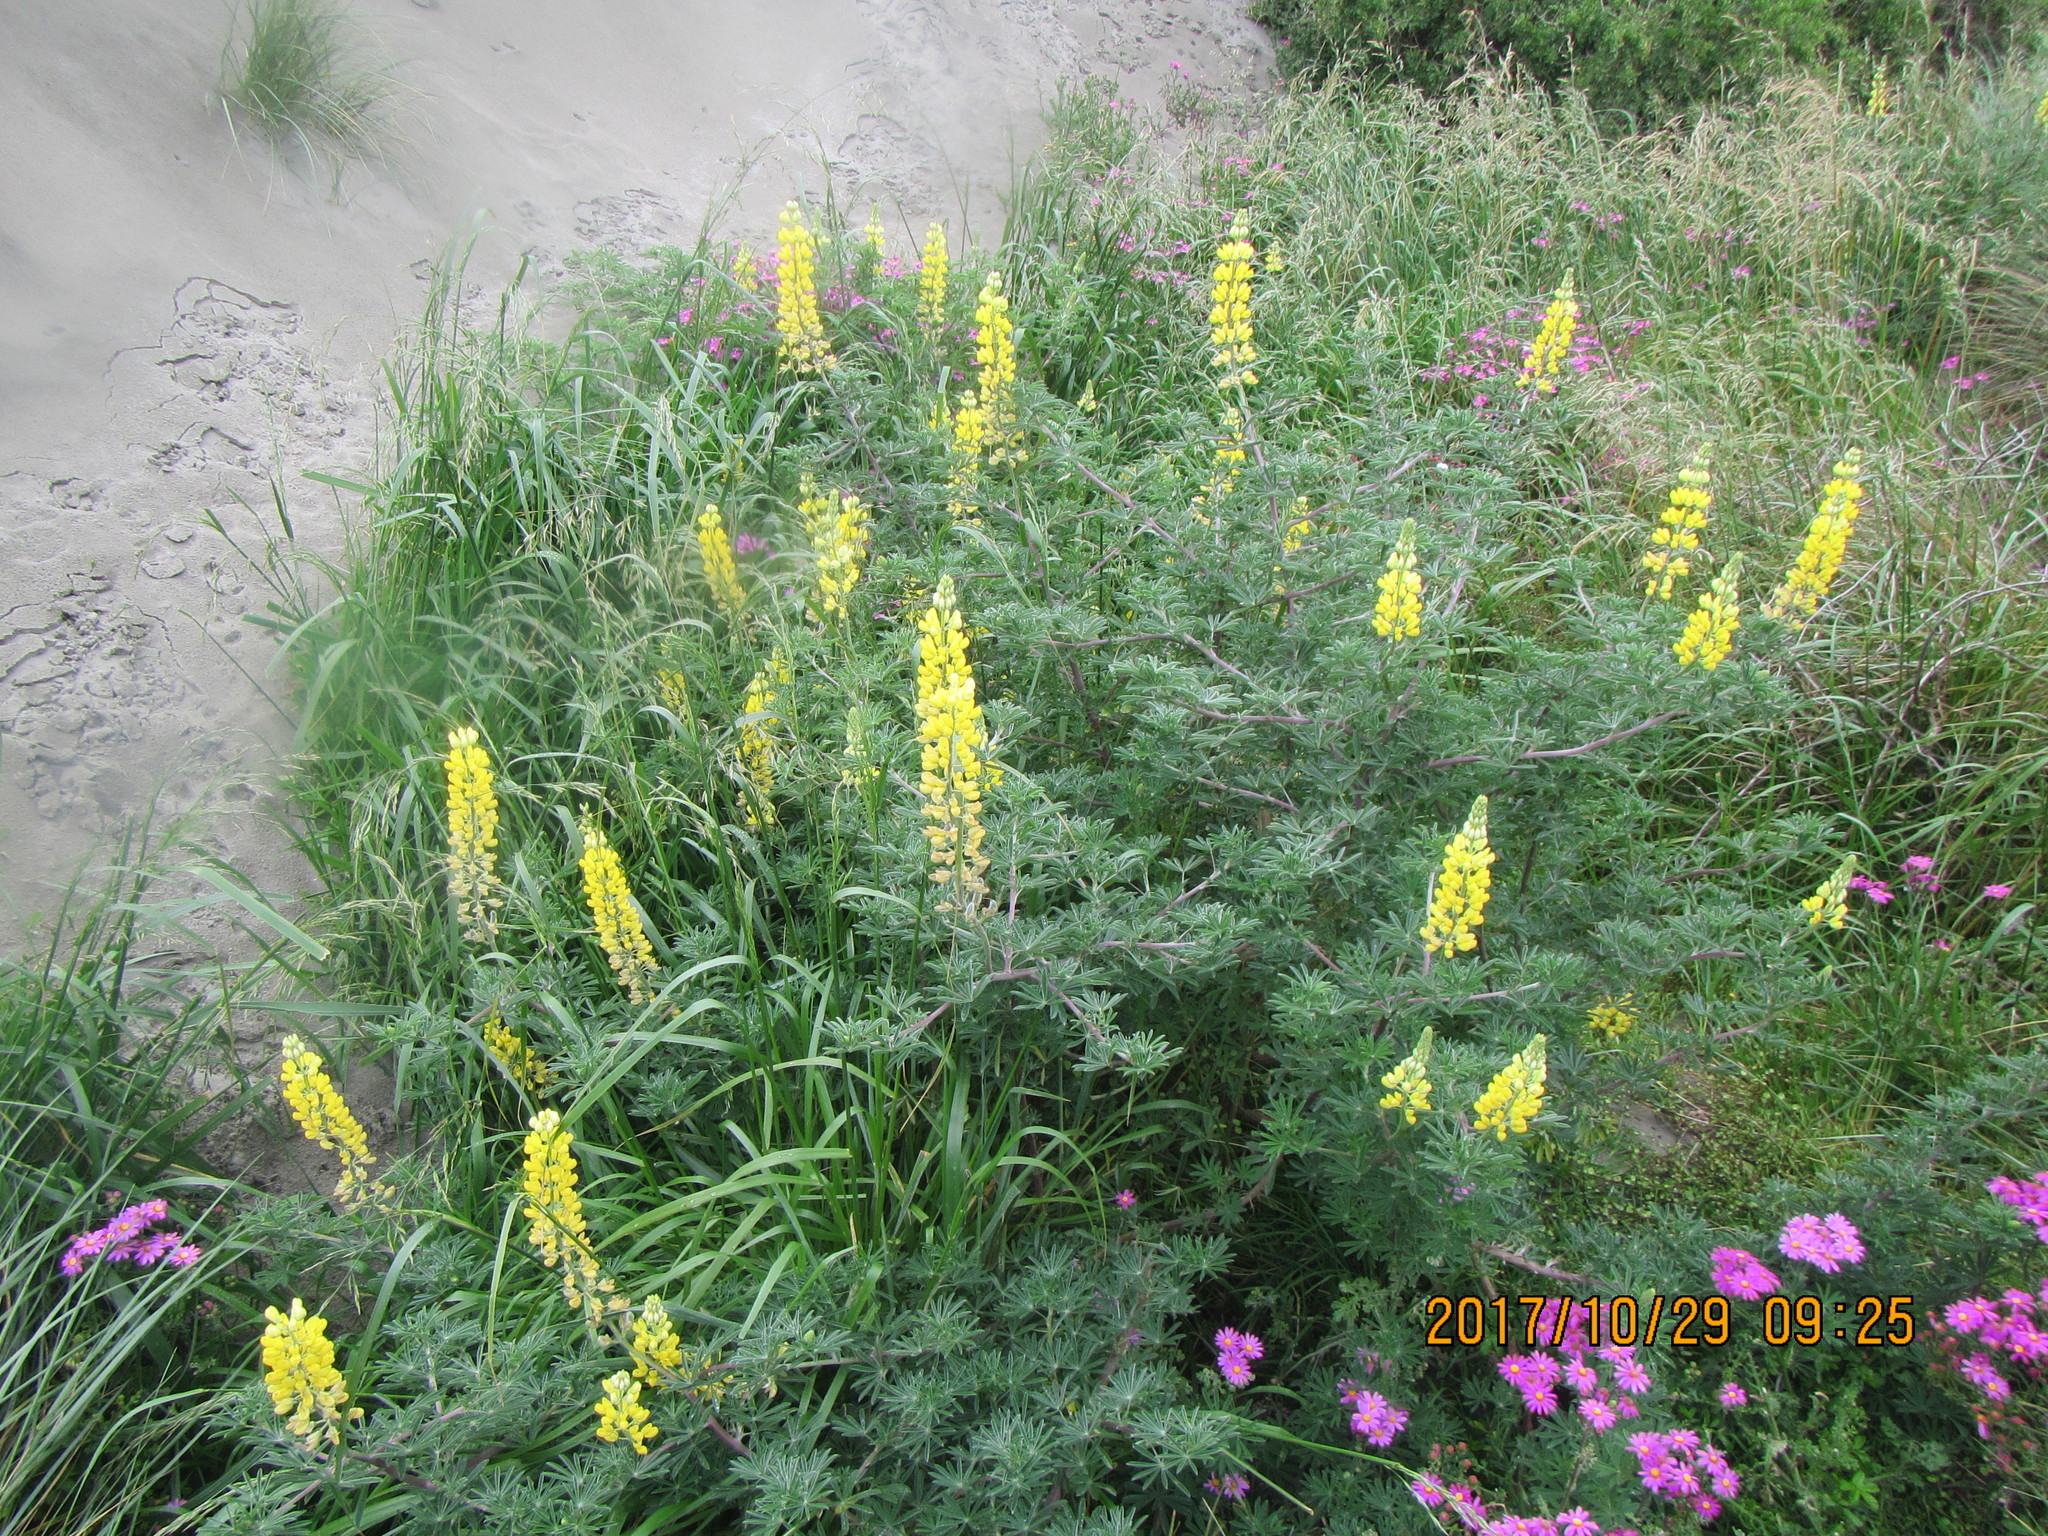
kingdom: Plantae
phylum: Tracheophyta
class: Magnoliopsida
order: Fabales
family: Fabaceae
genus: Lupinus
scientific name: Lupinus arboreus
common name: Yellow bush lupine
